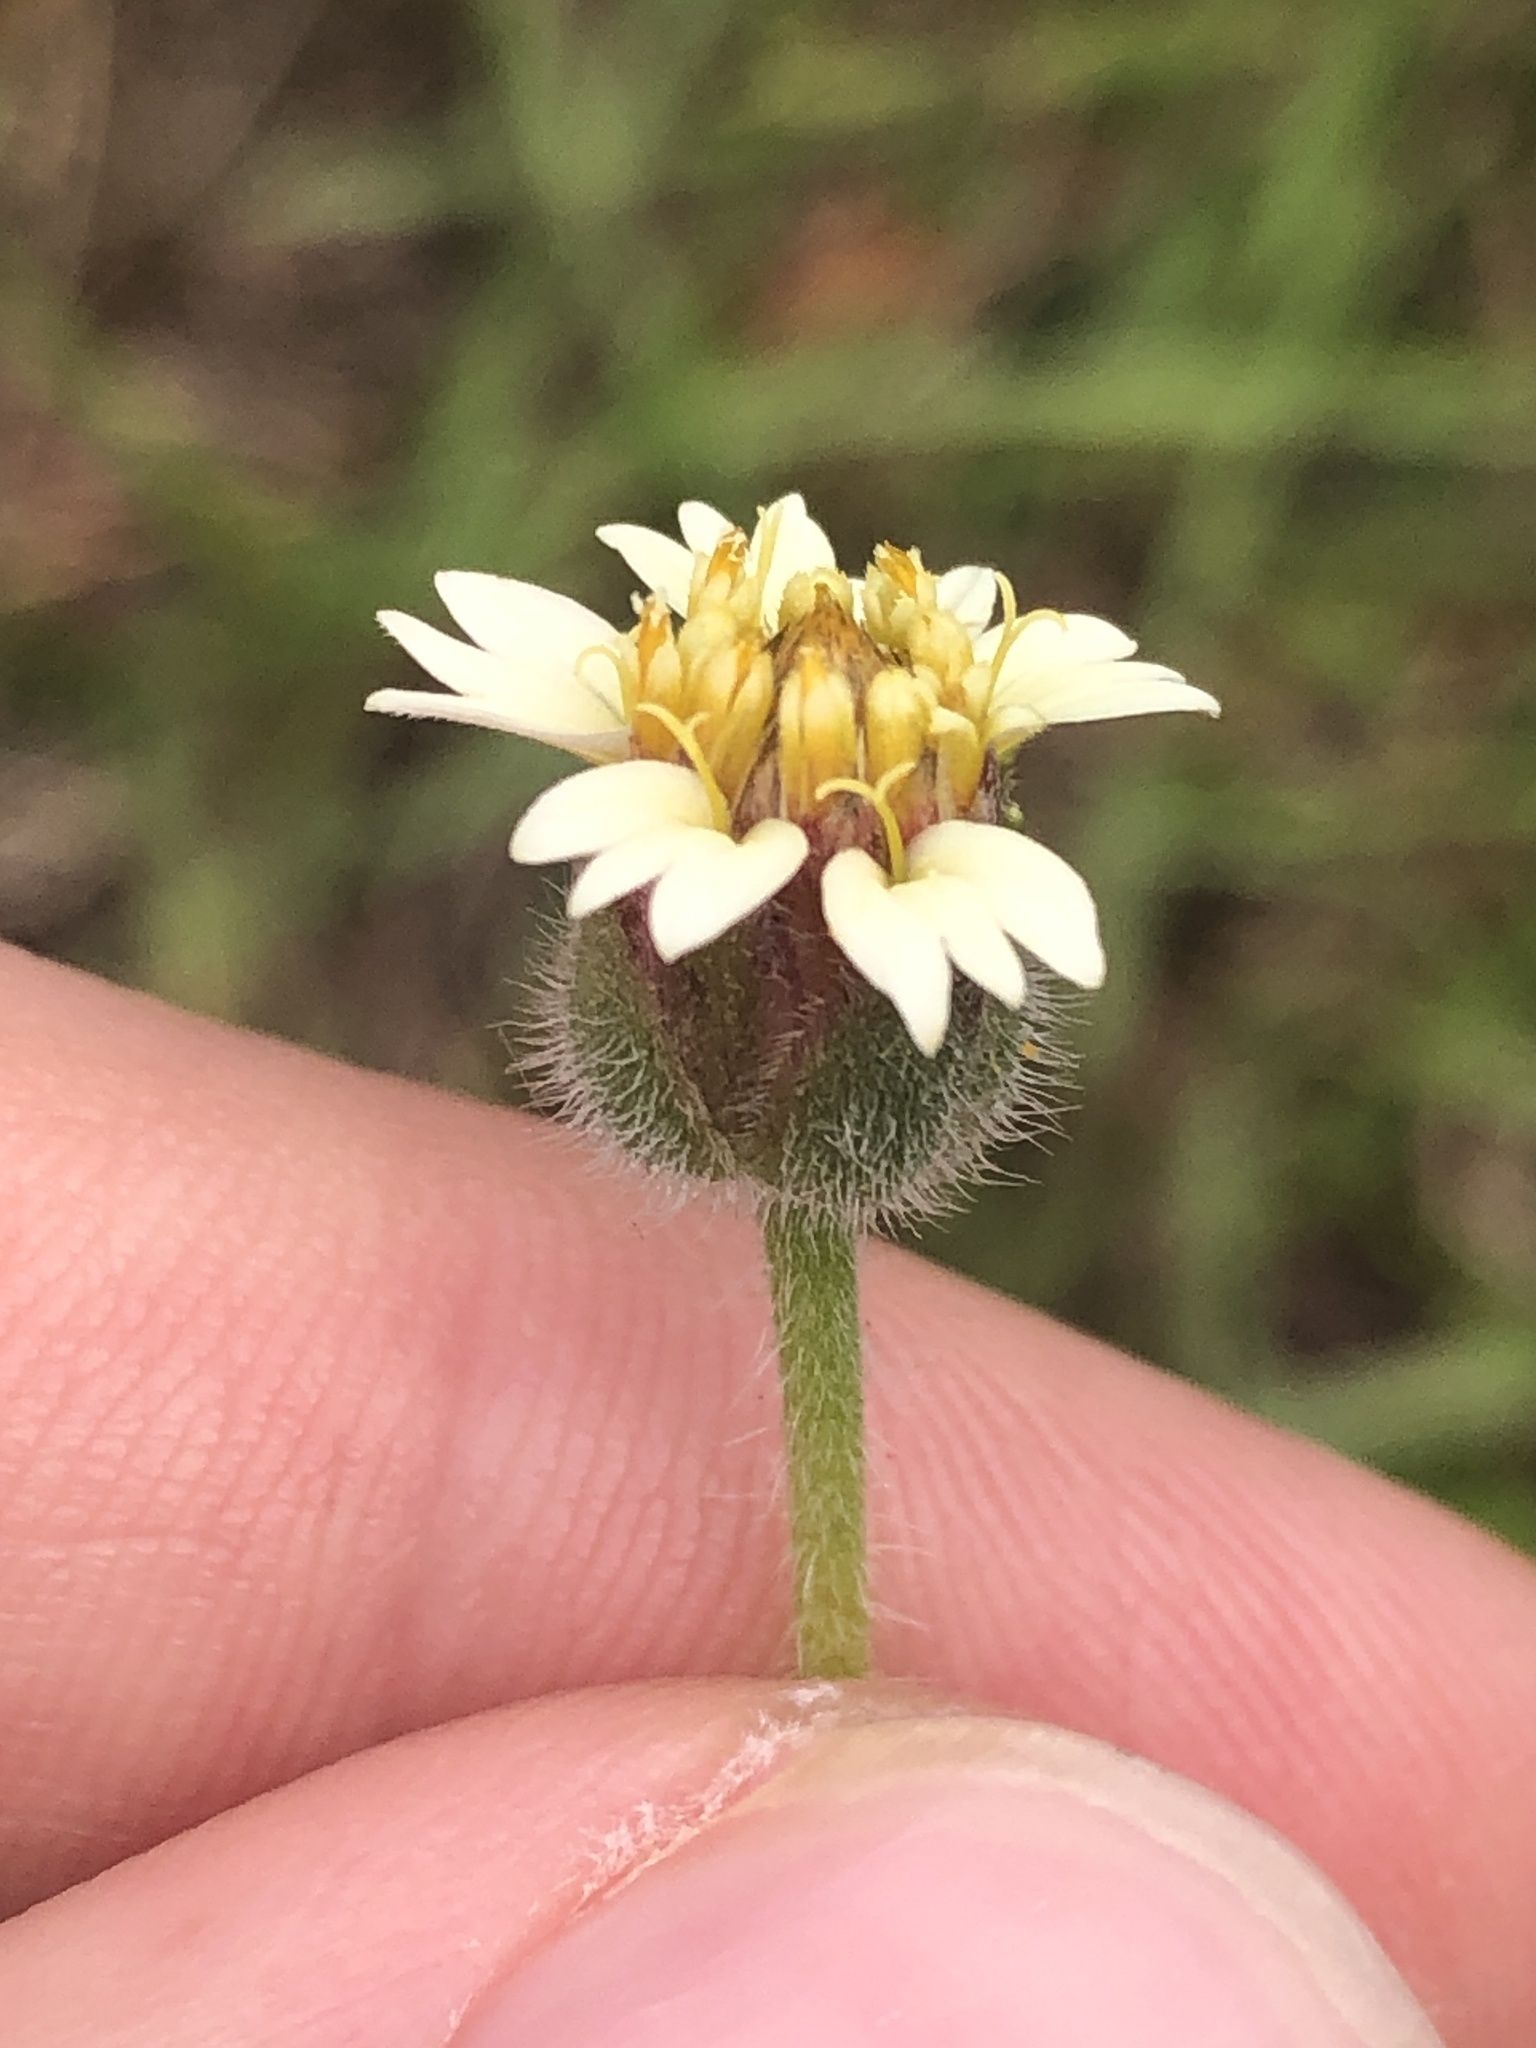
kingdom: Plantae
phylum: Tracheophyta
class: Magnoliopsida
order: Asterales
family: Asteraceae
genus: Tridax
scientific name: Tridax procumbens
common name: Coatbuttons
